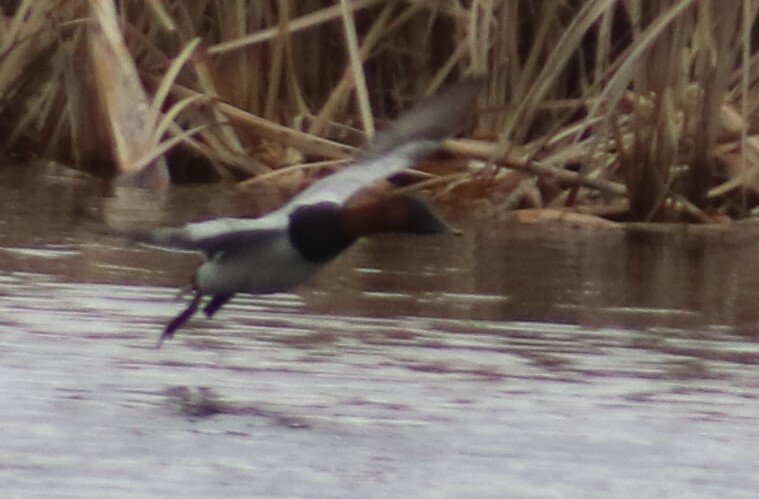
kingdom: Animalia
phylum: Chordata
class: Aves
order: Anseriformes
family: Anatidae
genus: Aythya
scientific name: Aythya valisineria
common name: Canvasback
